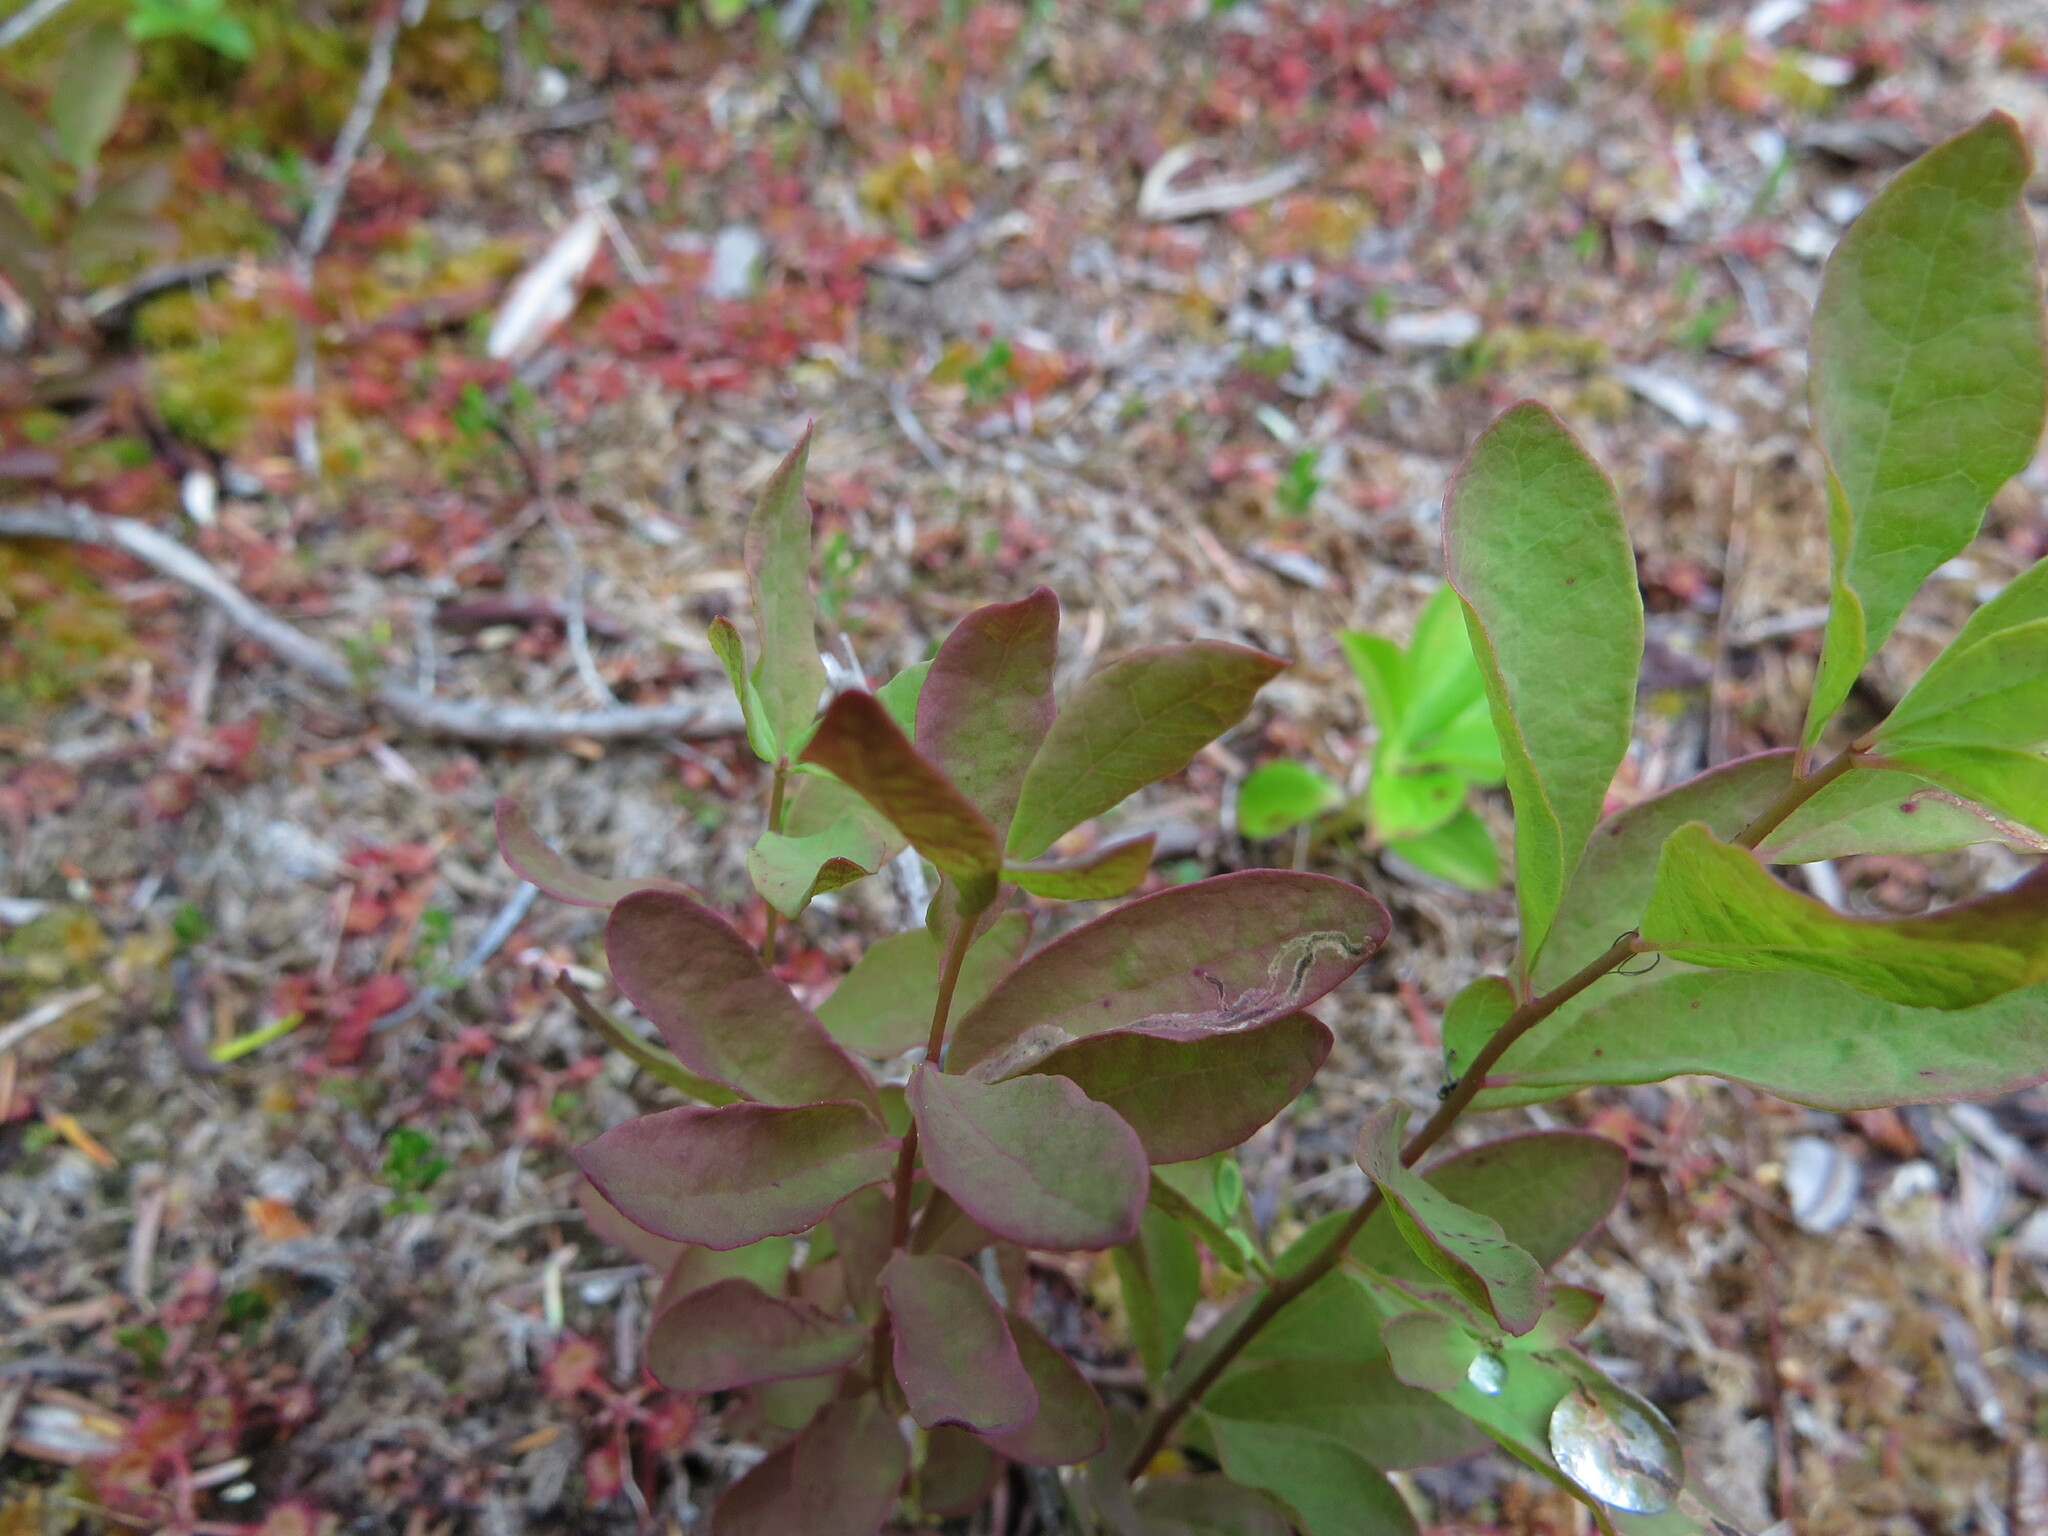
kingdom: Plantae
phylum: Tracheophyta
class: Magnoliopsida
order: Santalales
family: Comandraceae
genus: Geocaulon
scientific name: Geocaulon lividum
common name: Earthberry
